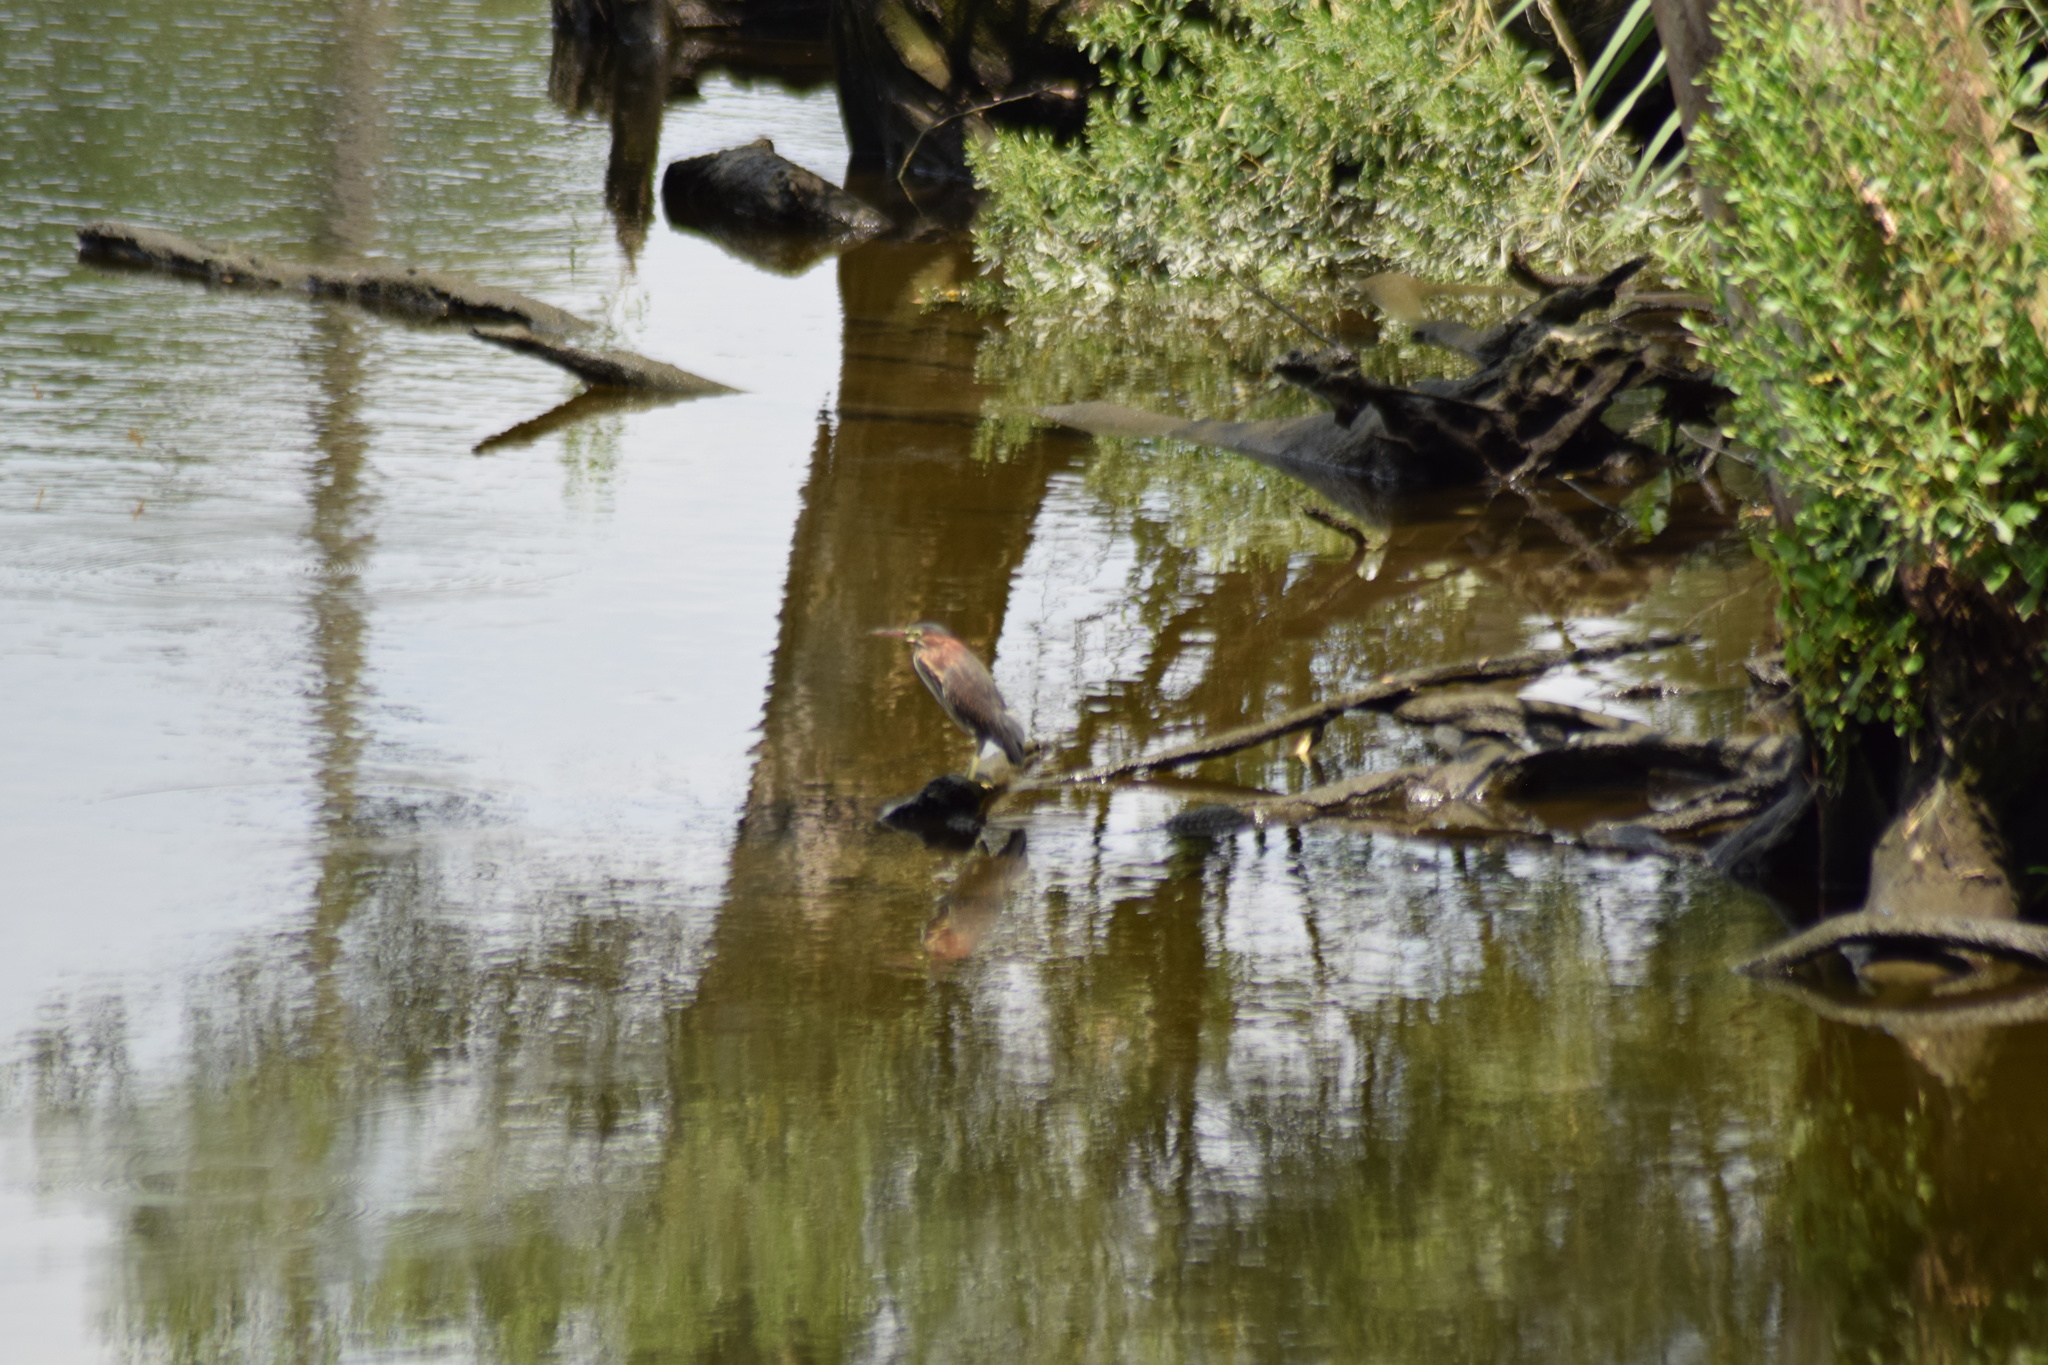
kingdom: Animalia
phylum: Chordata
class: Aves
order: Pelecaniformes
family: Ardeidae
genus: Butorides
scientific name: Butorides virescens
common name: Green heron
